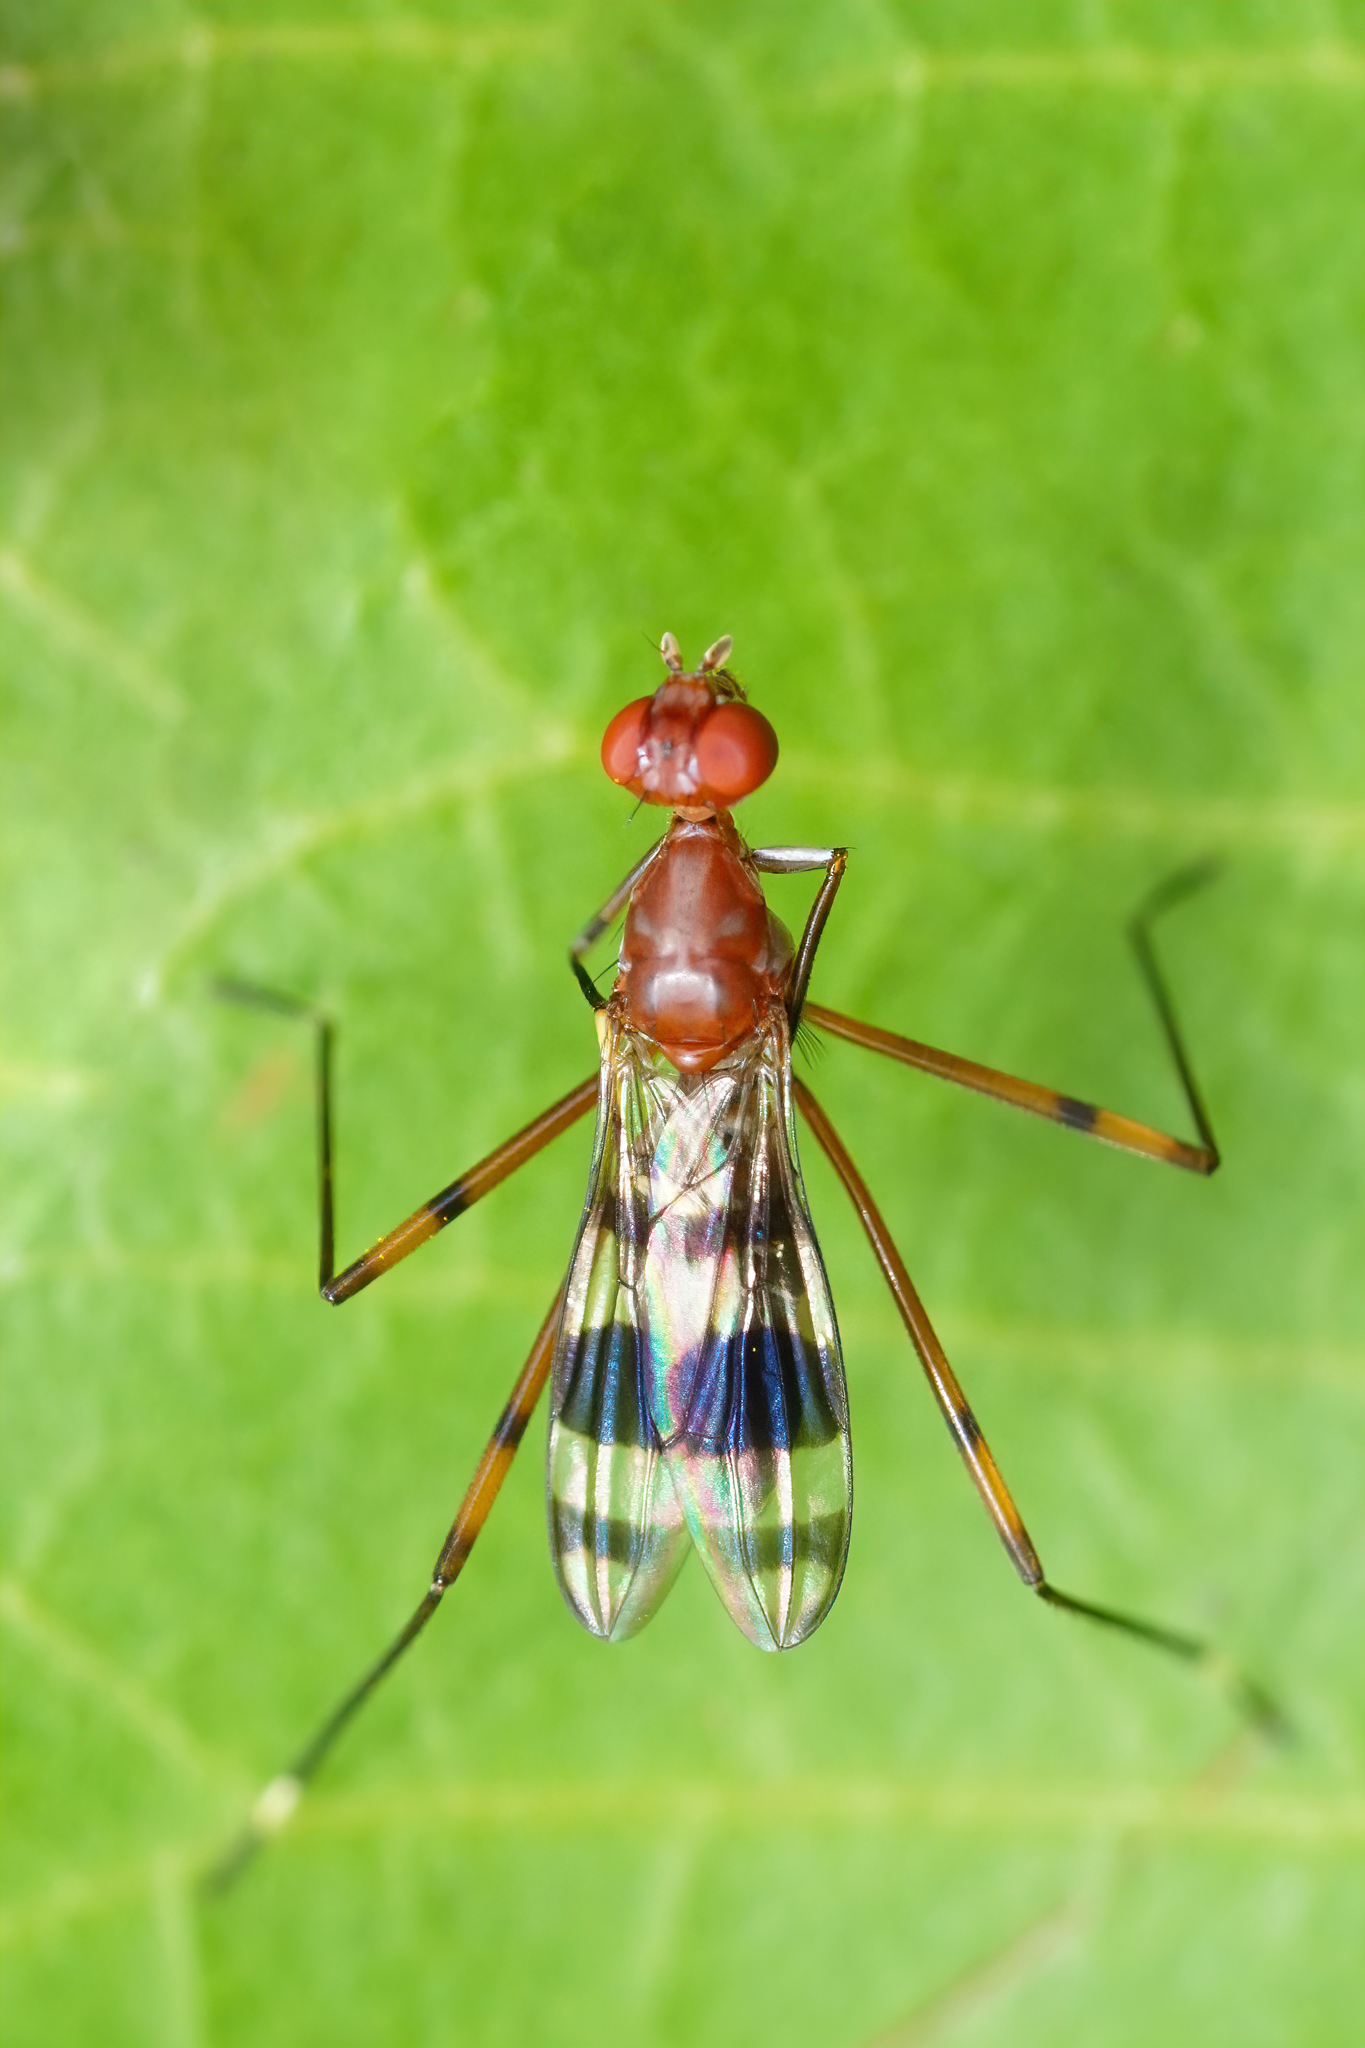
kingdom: Animalia
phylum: Arthropoda
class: Insecta
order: Diptera
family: Micropezidae
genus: Hoplocheiloma
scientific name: Hoplocheiloma totliana
